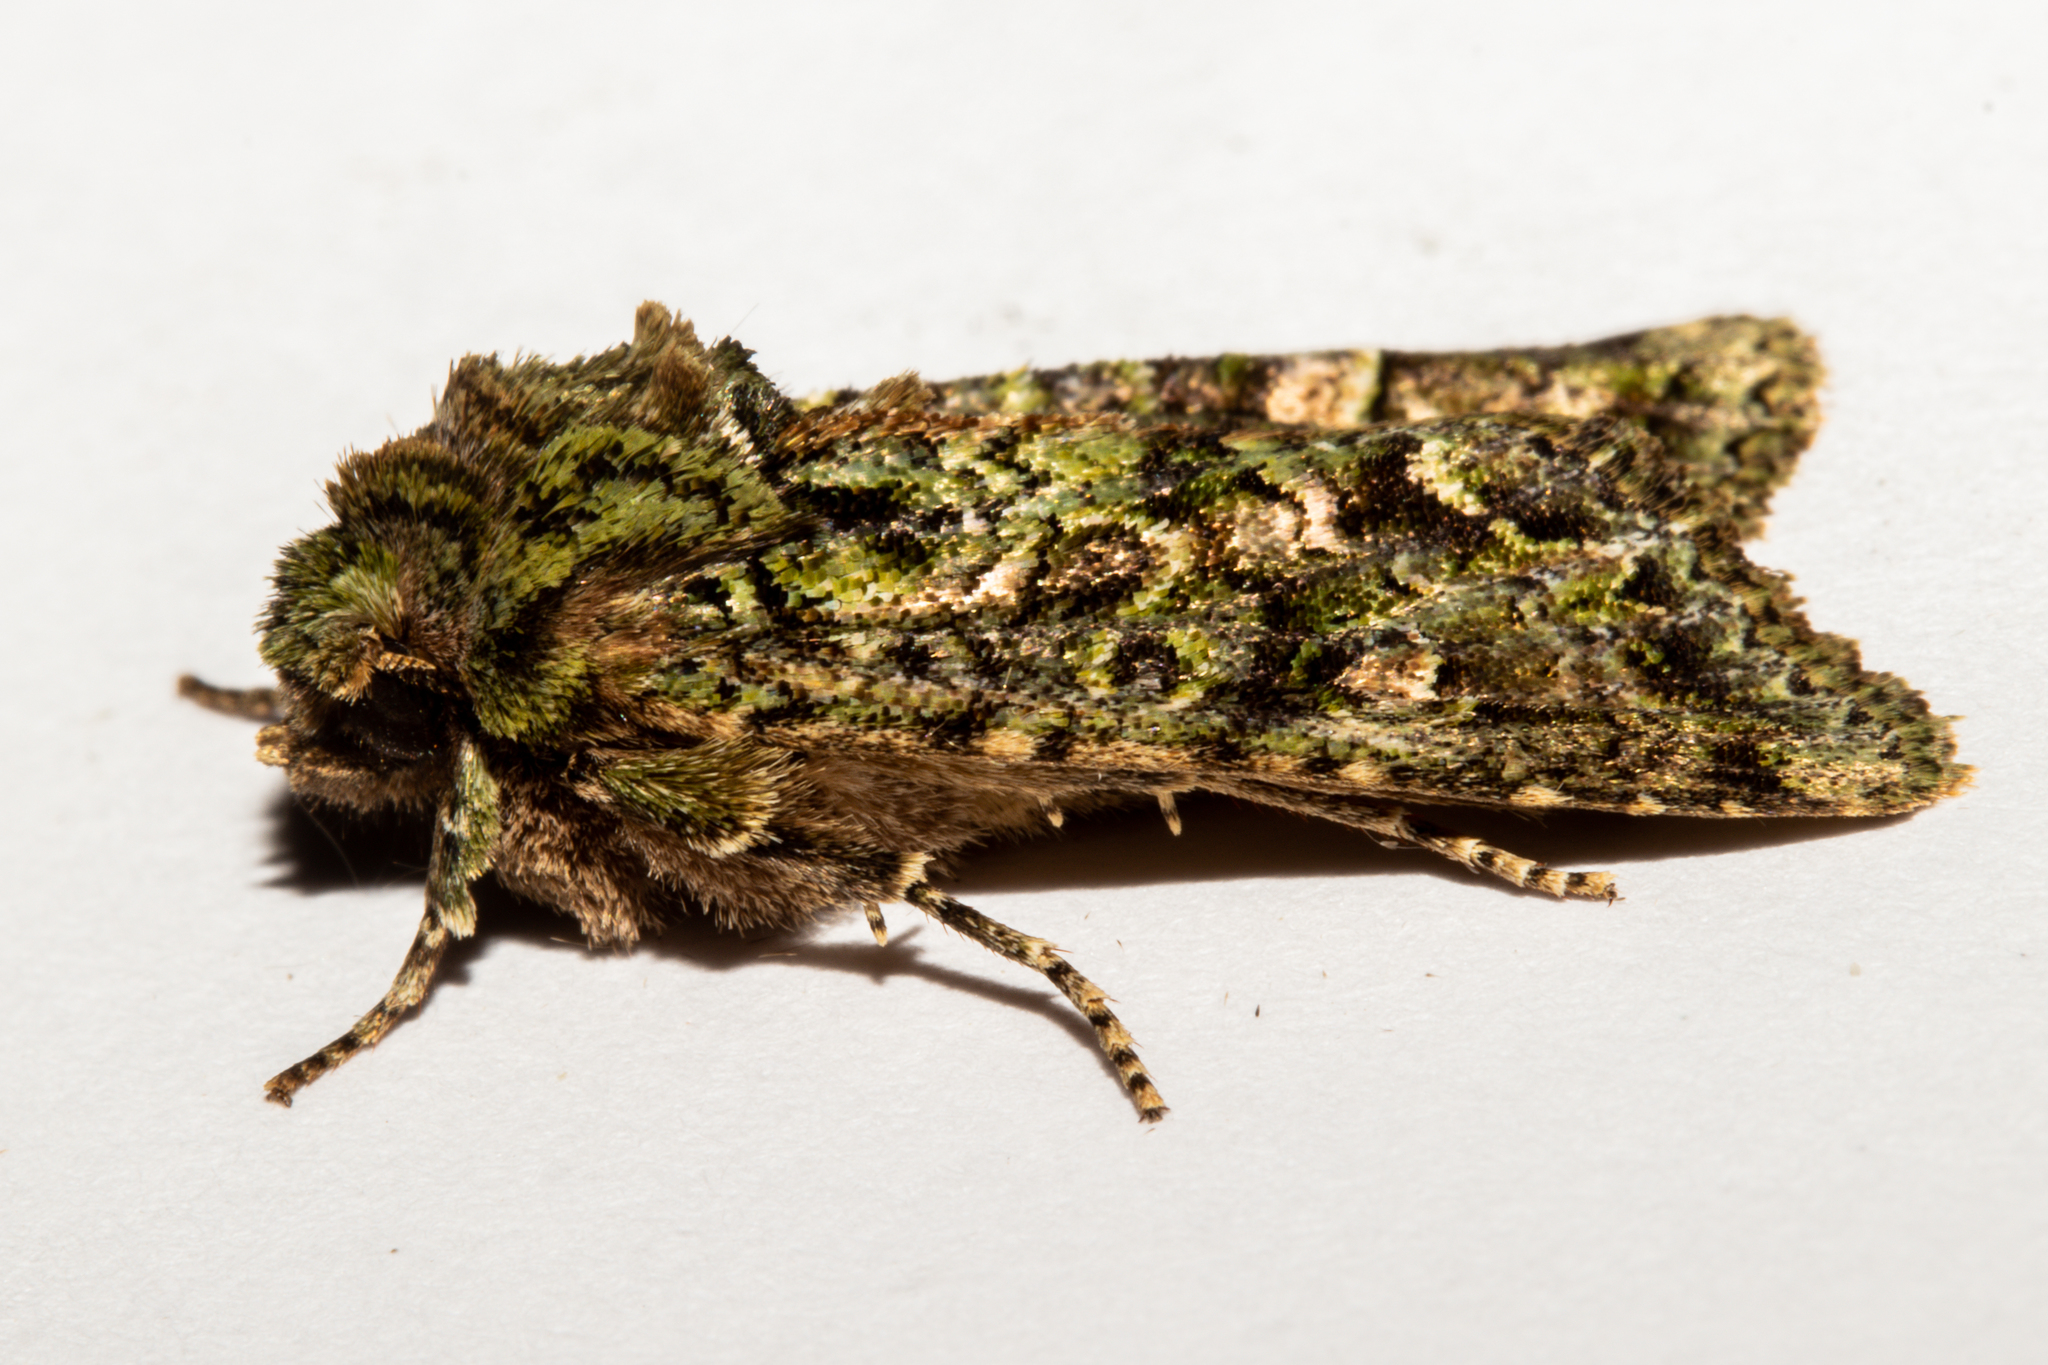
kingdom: Animalia
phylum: Arthropoda
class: Insecta
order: Lepidoptera
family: Noctuidae
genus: Ichneutica
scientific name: Ichneutica
